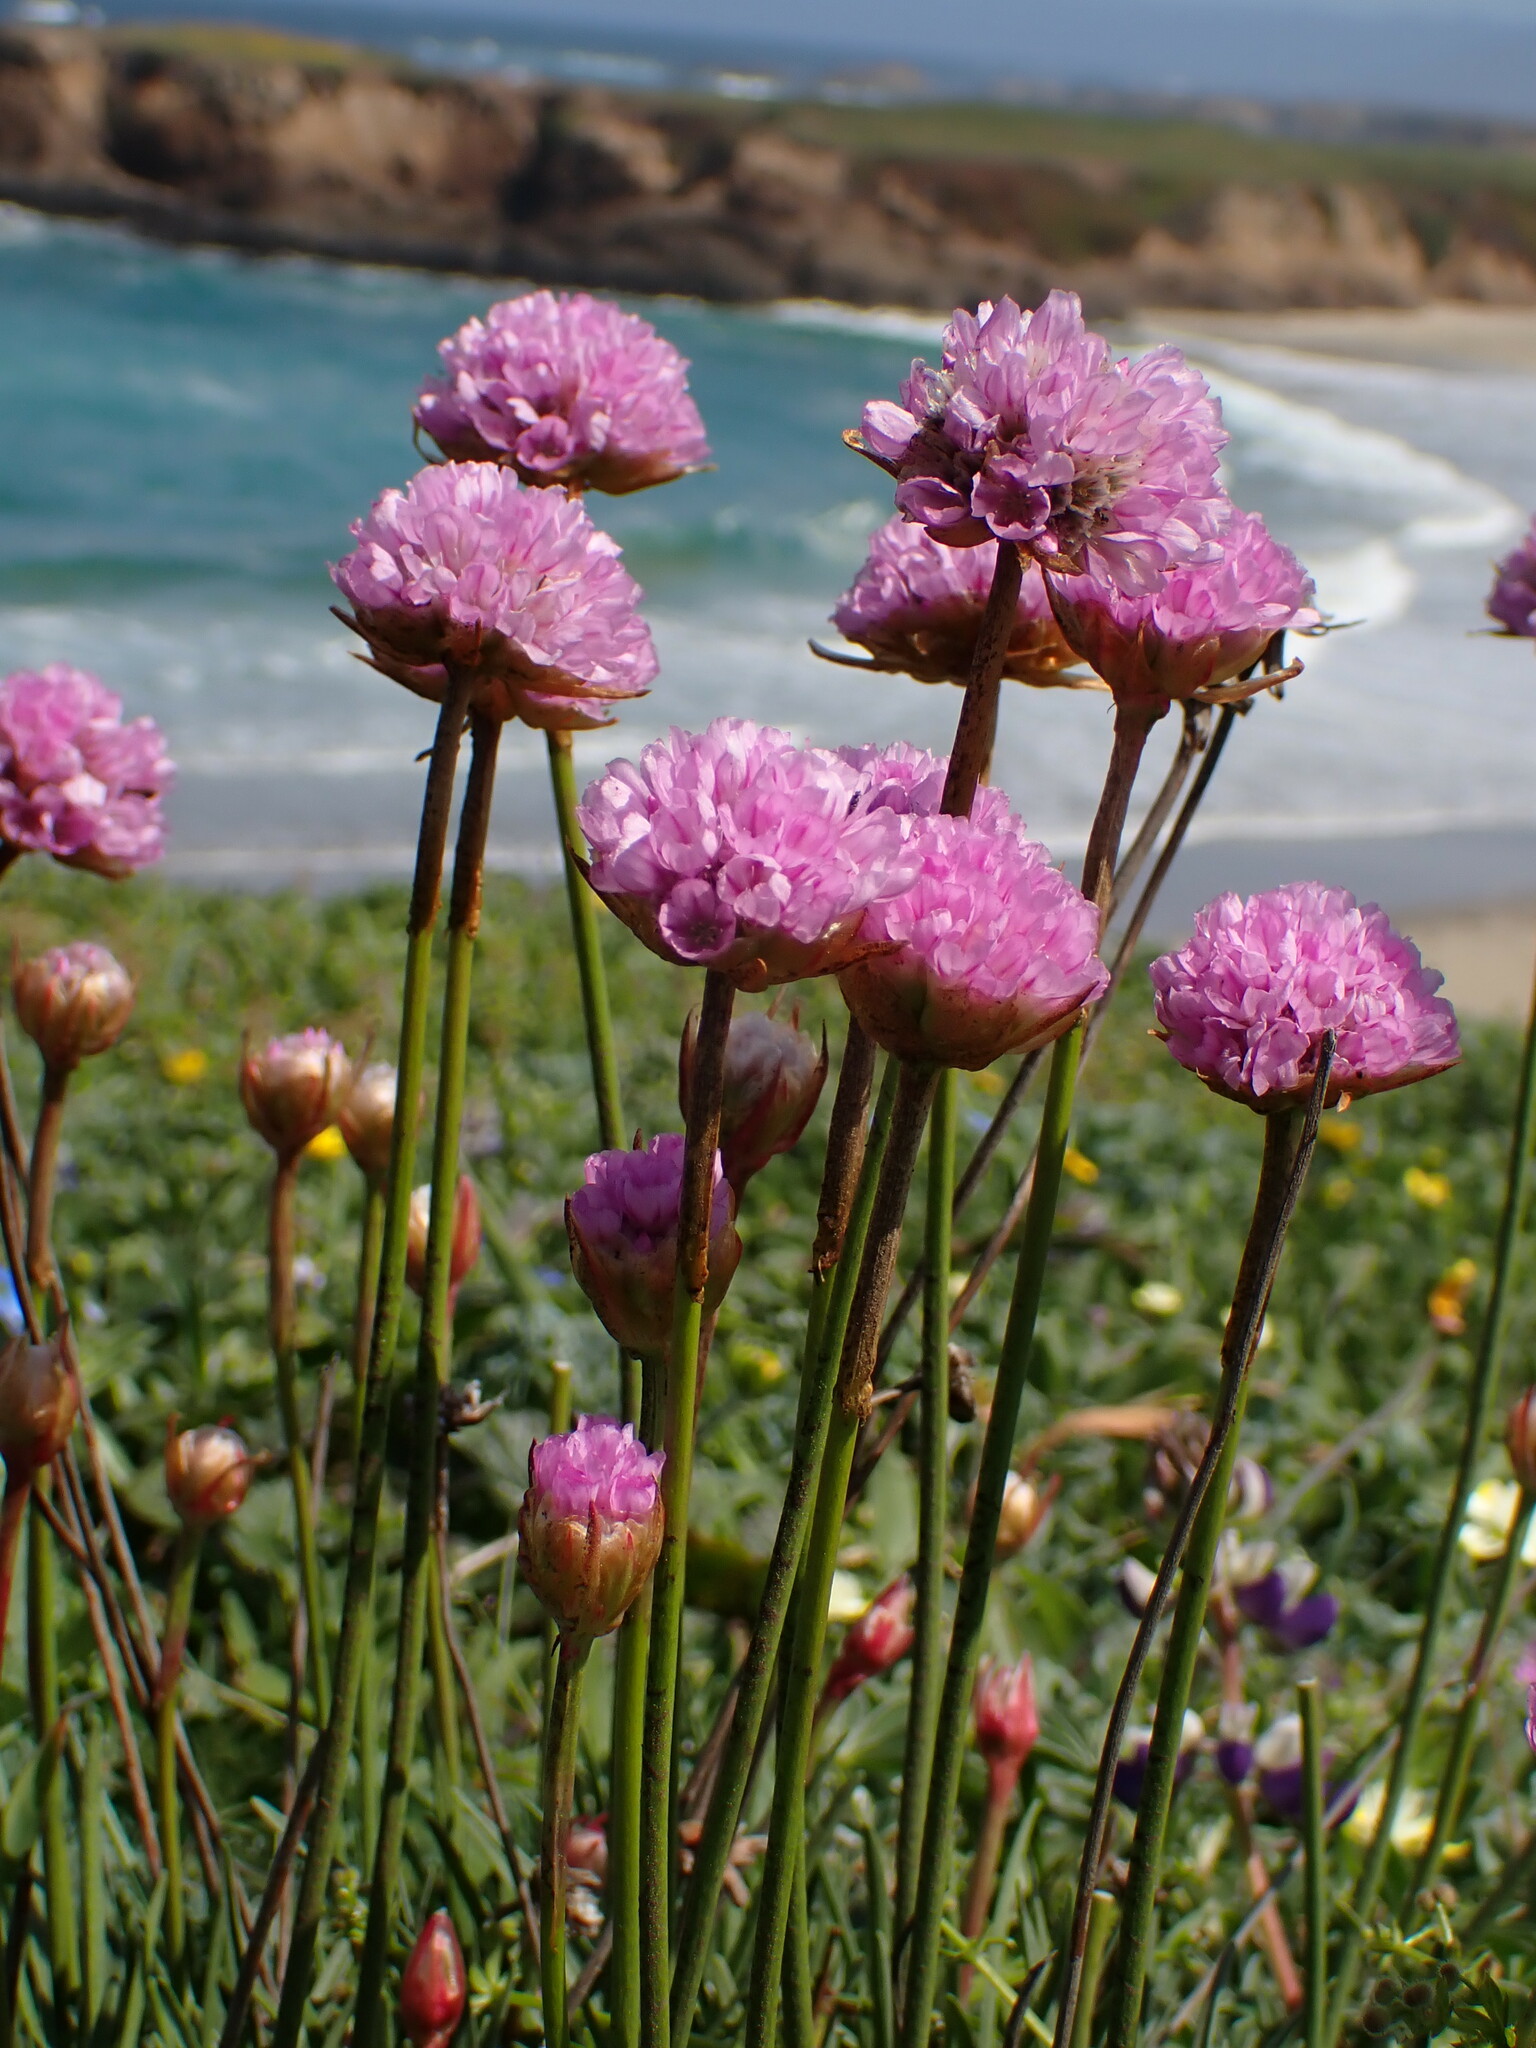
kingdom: Plantae
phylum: Tracheophyta
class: Magnoliopsida
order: Caryophyllales
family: Plumbaginaceae
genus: Armeria
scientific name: Armeria maritima
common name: Thrift
